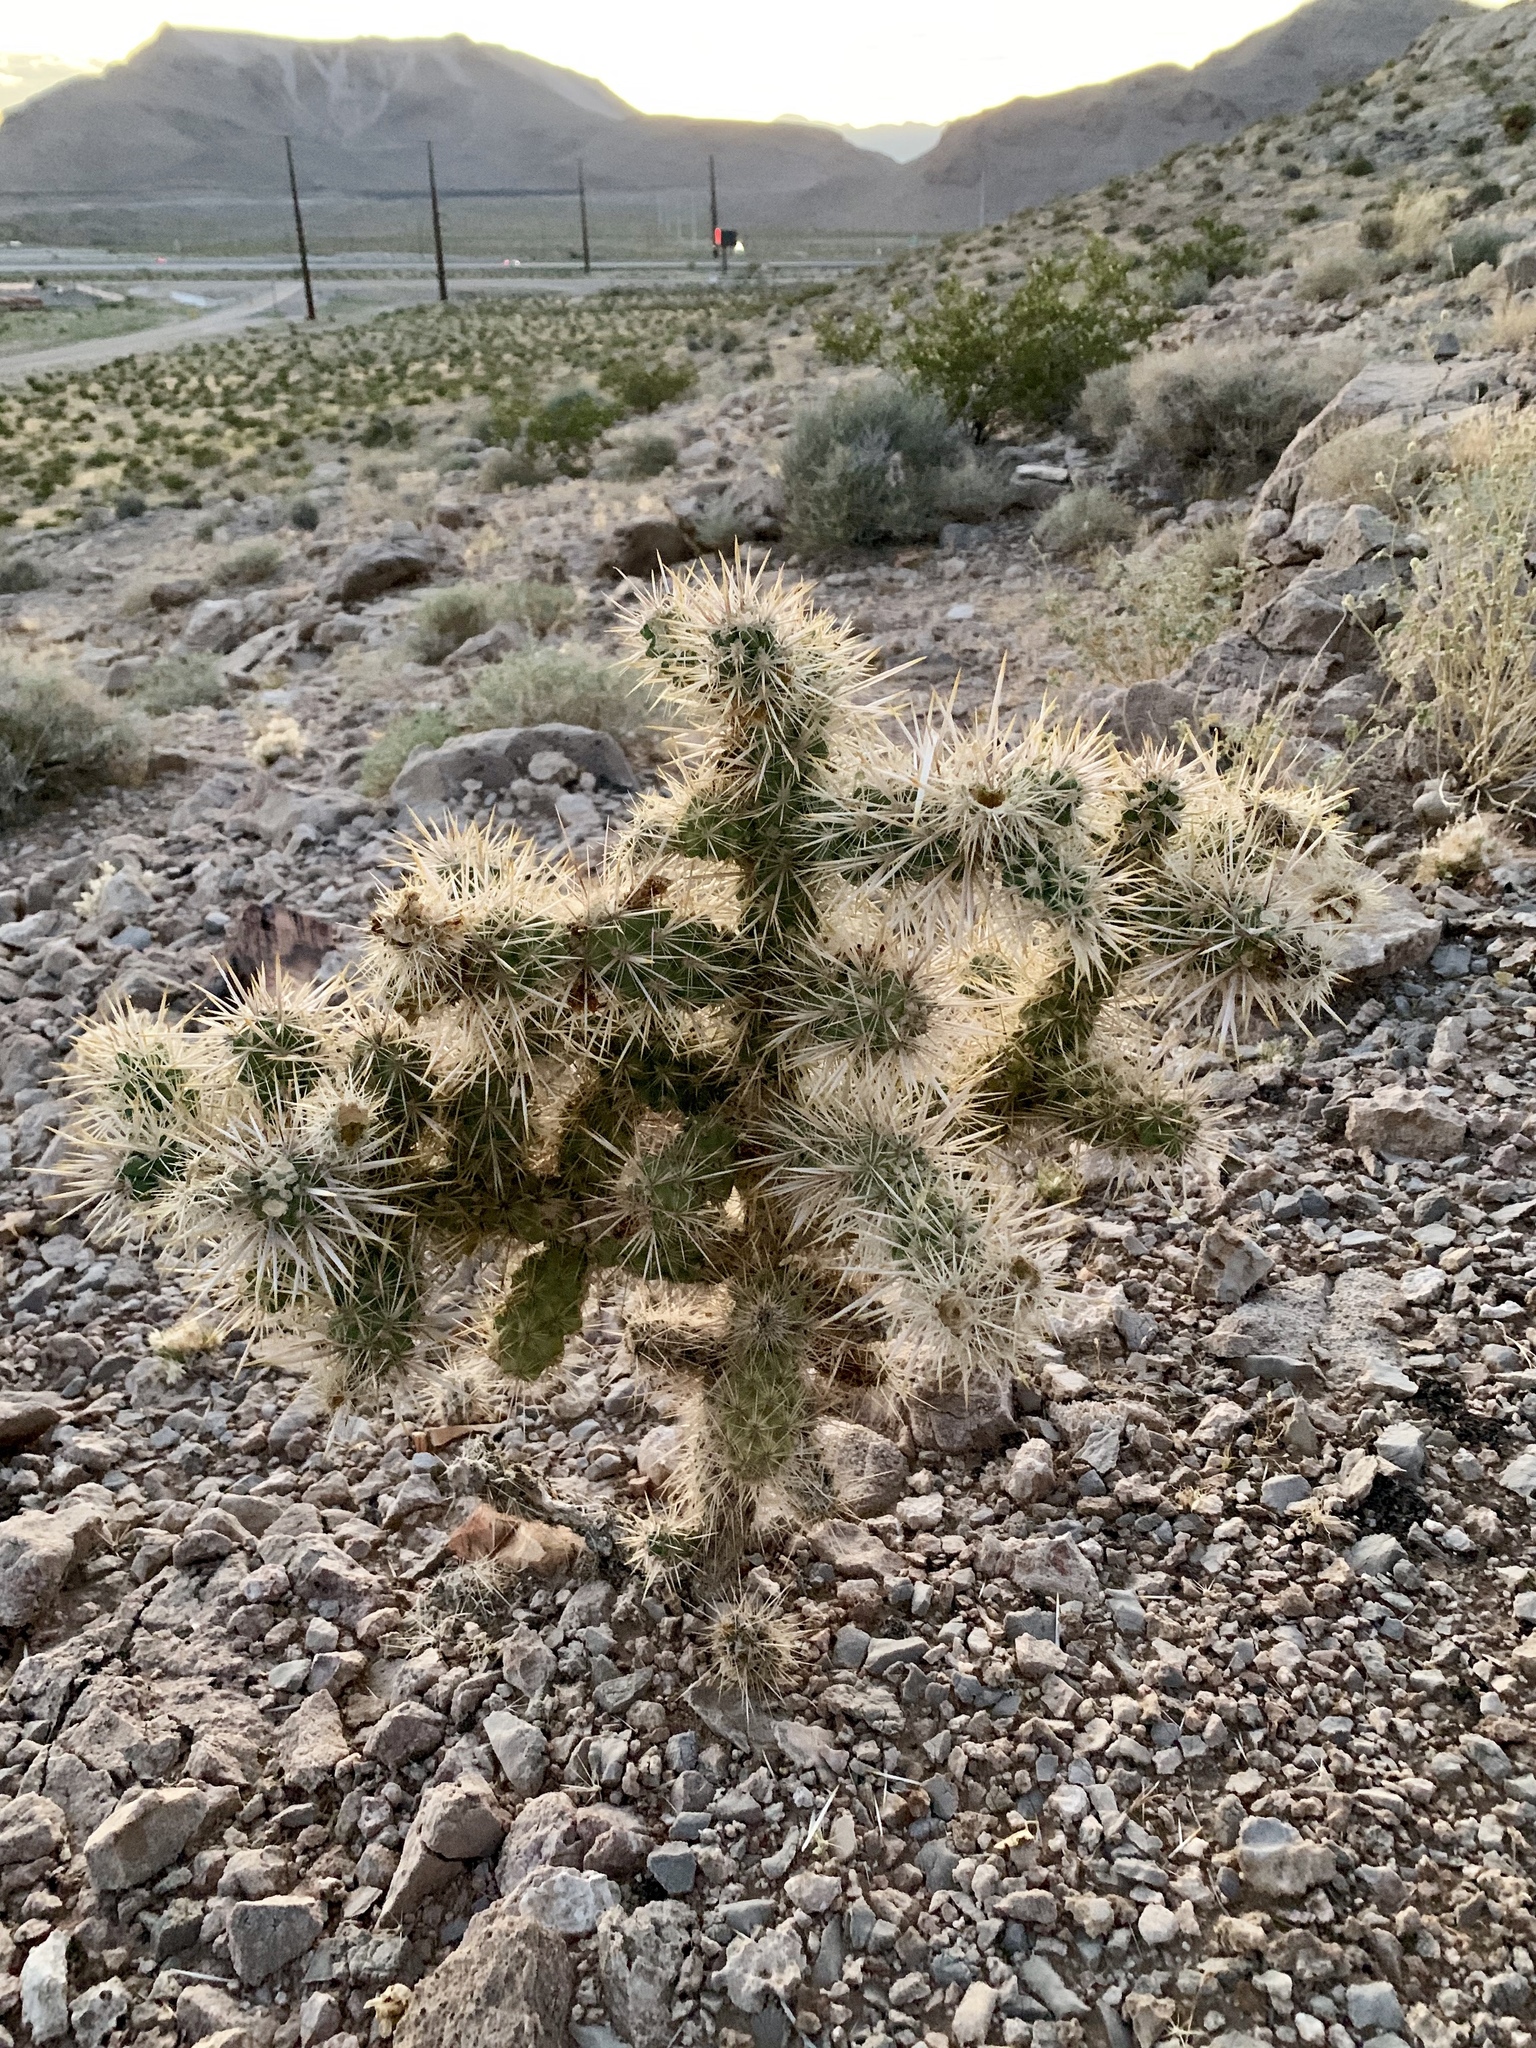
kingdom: Plantae
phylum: Tracheophyta
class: Magnoliopsida
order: Caryophyllales
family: Cactaceae
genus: Cylindropuntia
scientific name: Cylindropuntia echinocarpa
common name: Ground cholla
